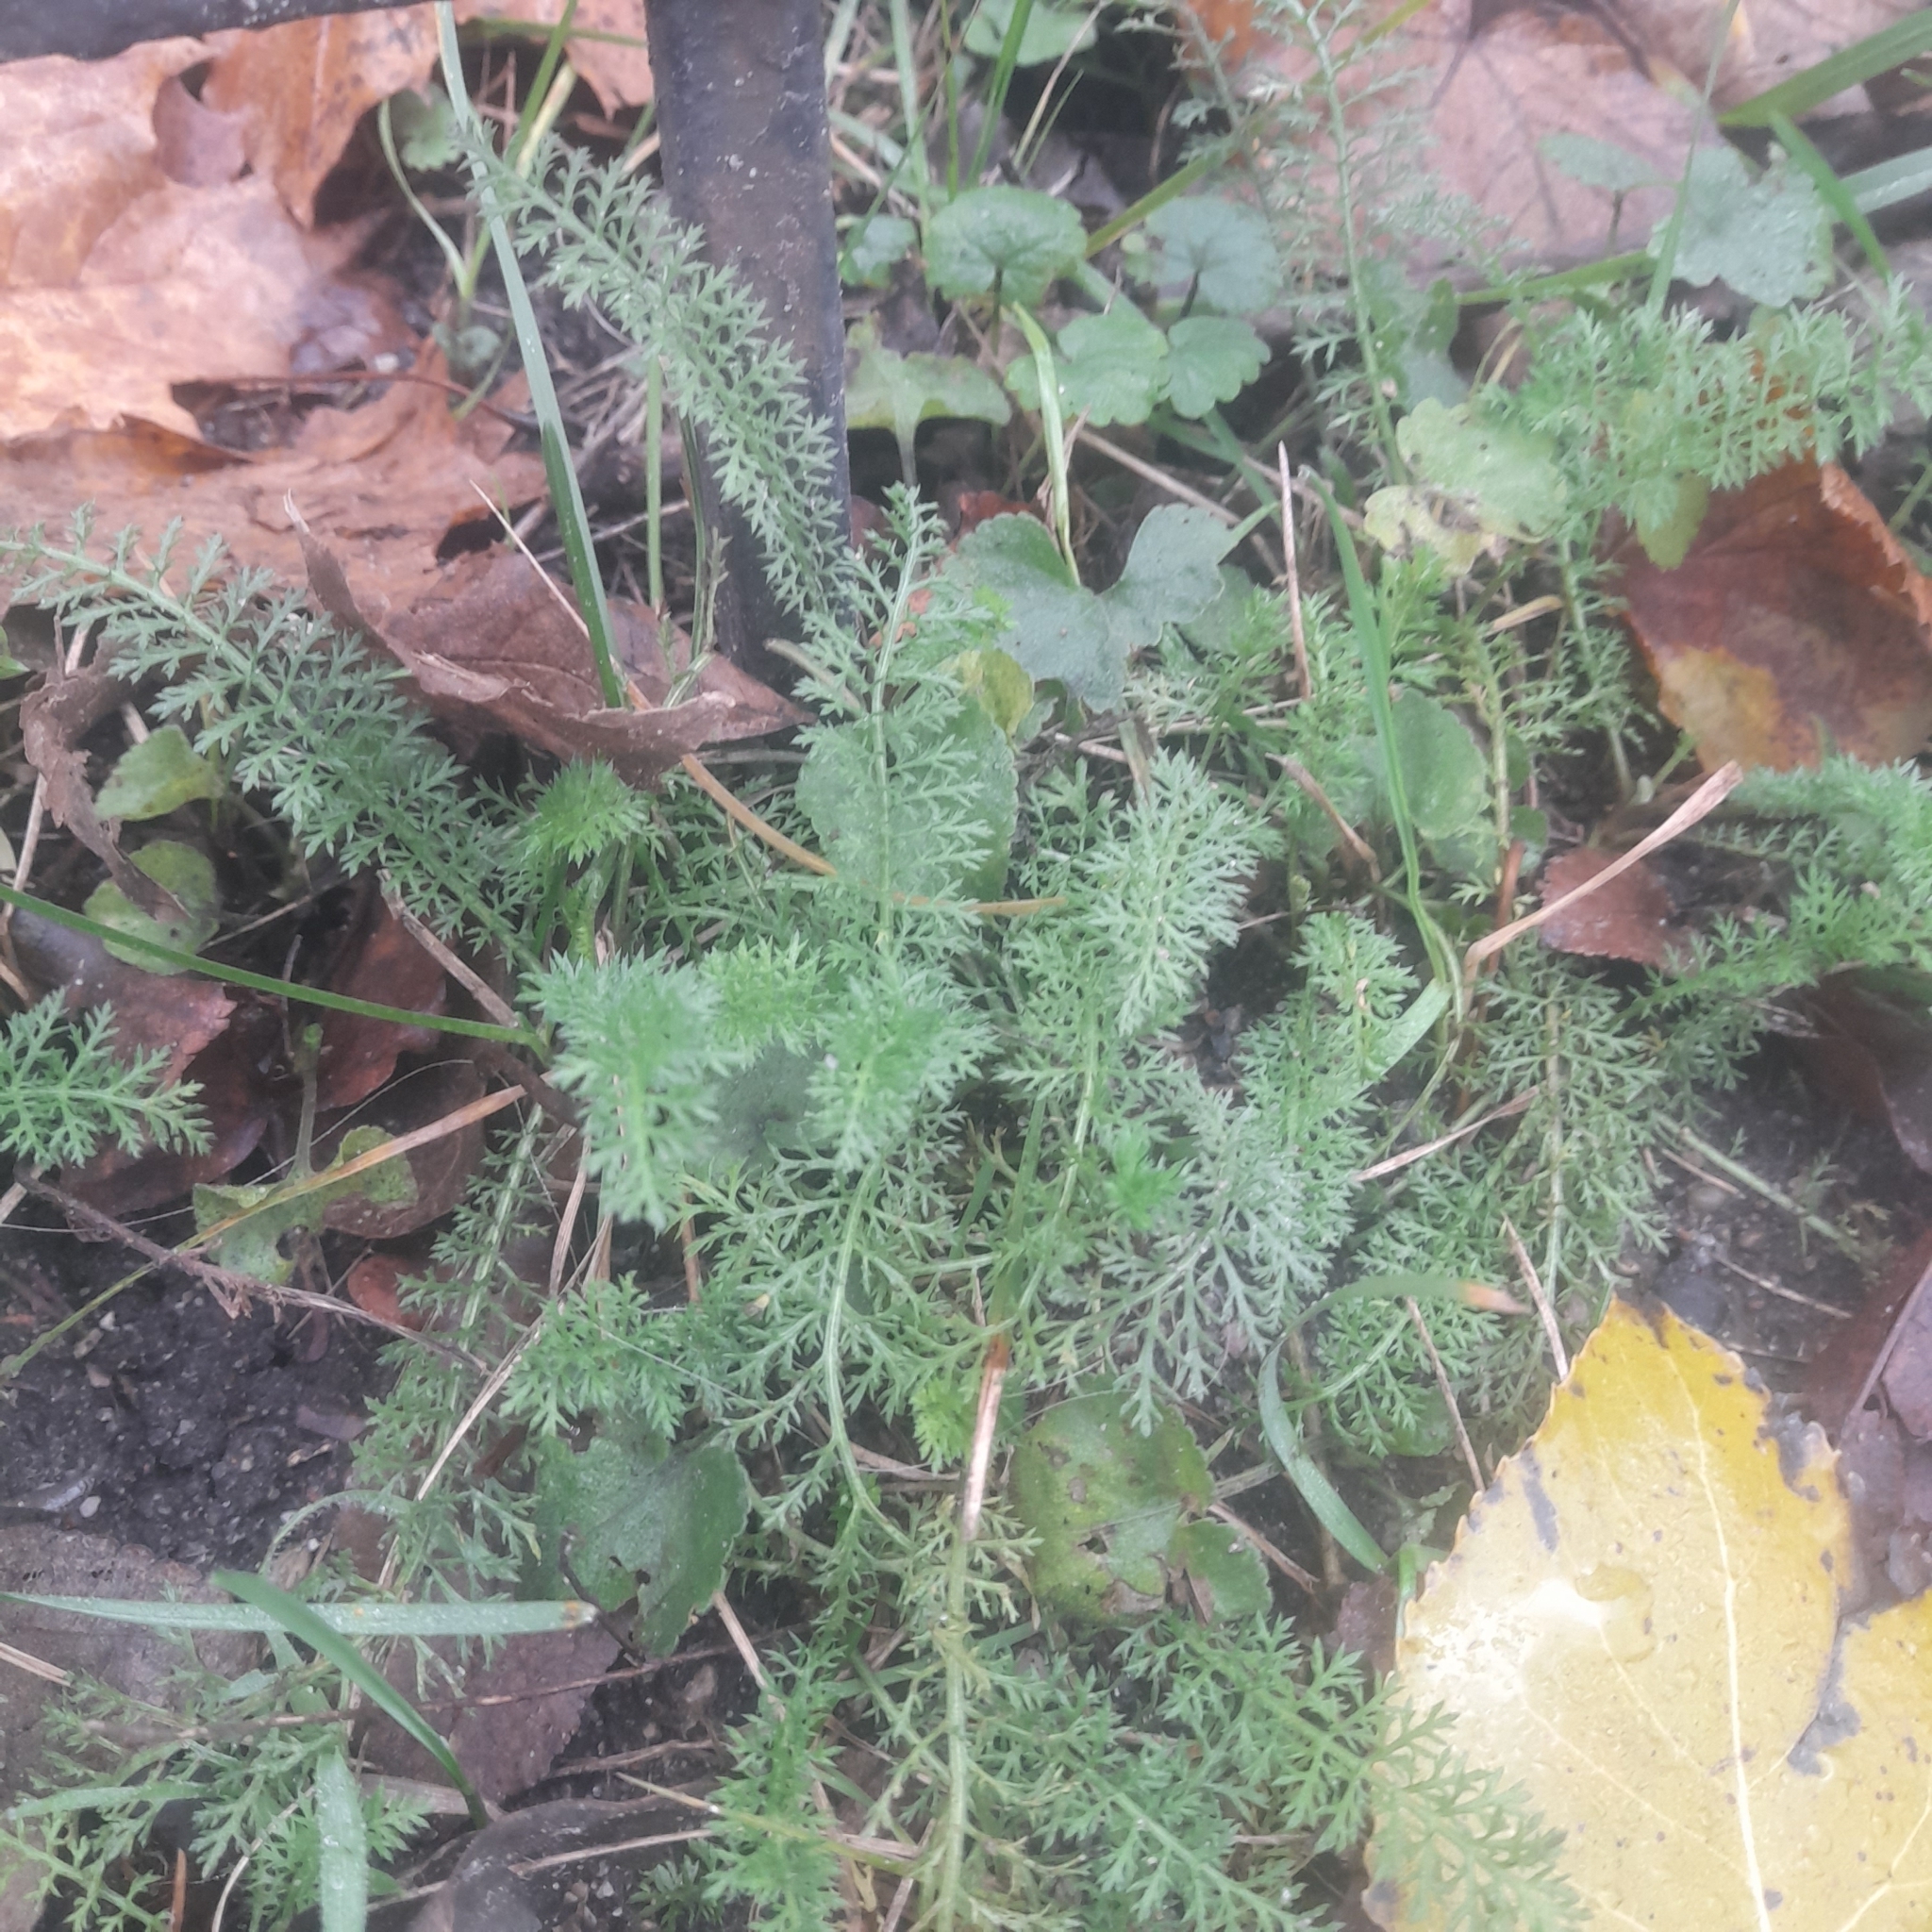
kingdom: Plantae
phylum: Tracheophyta
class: Magnoliopsida
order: Asterales
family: Asteraceae
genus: Achillea
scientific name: Achillea millefolium
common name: Yarrow
